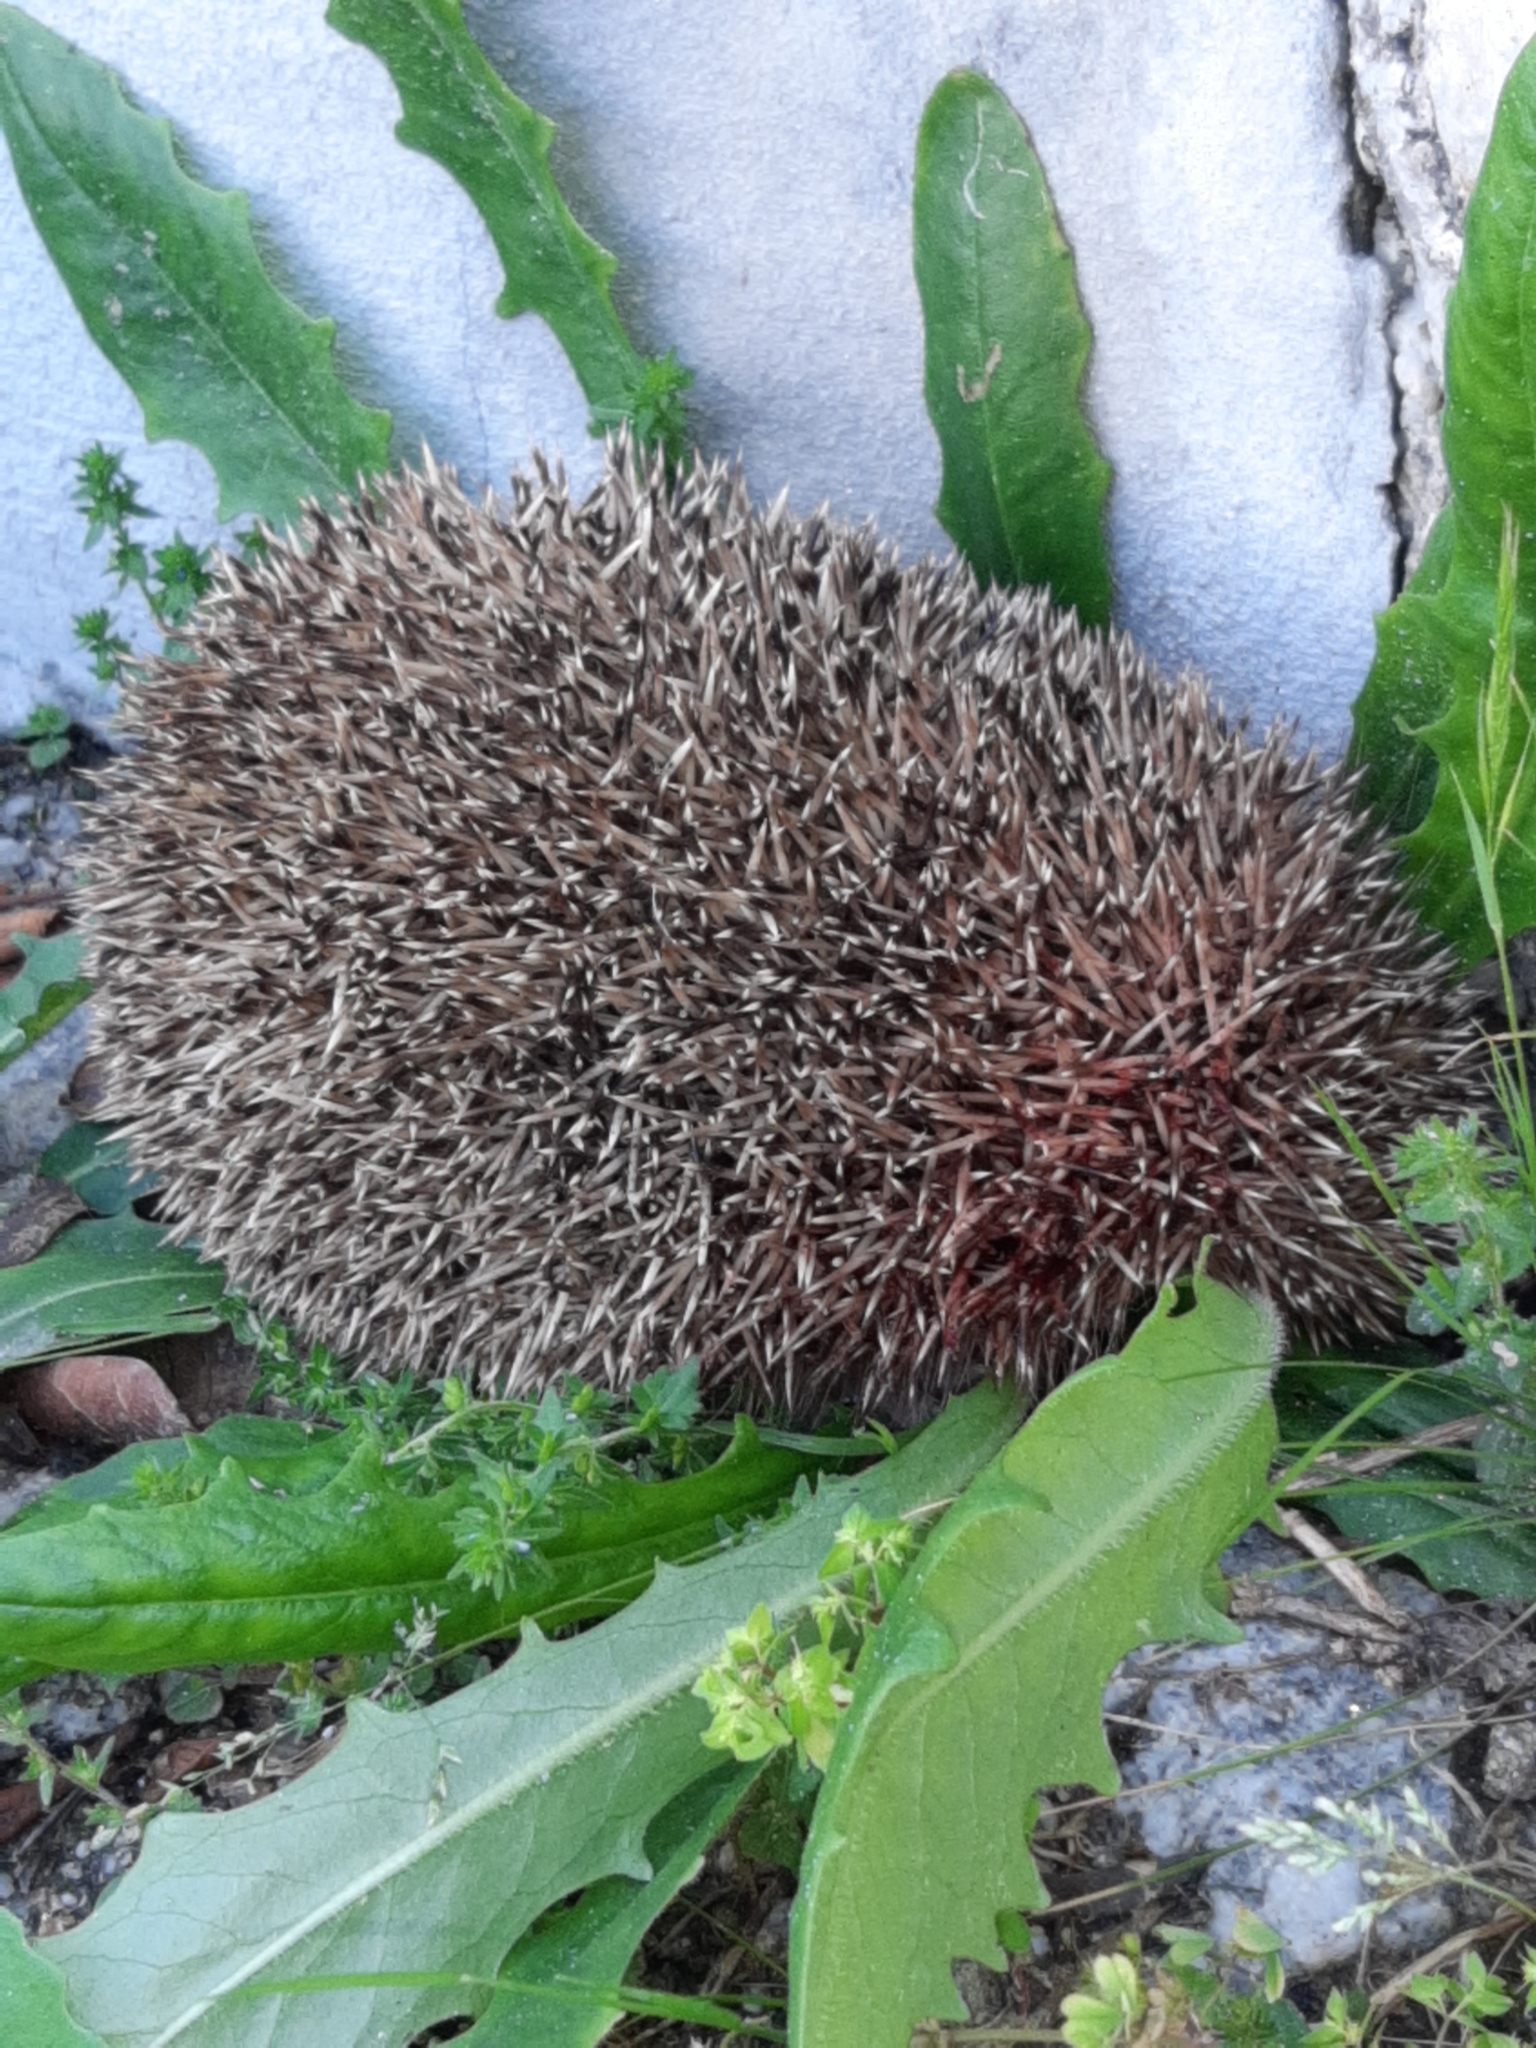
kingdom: Animalia
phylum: Chordata
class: Mammalia
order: Erinaceomorpha
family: Erinaceidae
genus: Erinaceus
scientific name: Erinaceus europaeus
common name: West european hedgehog
